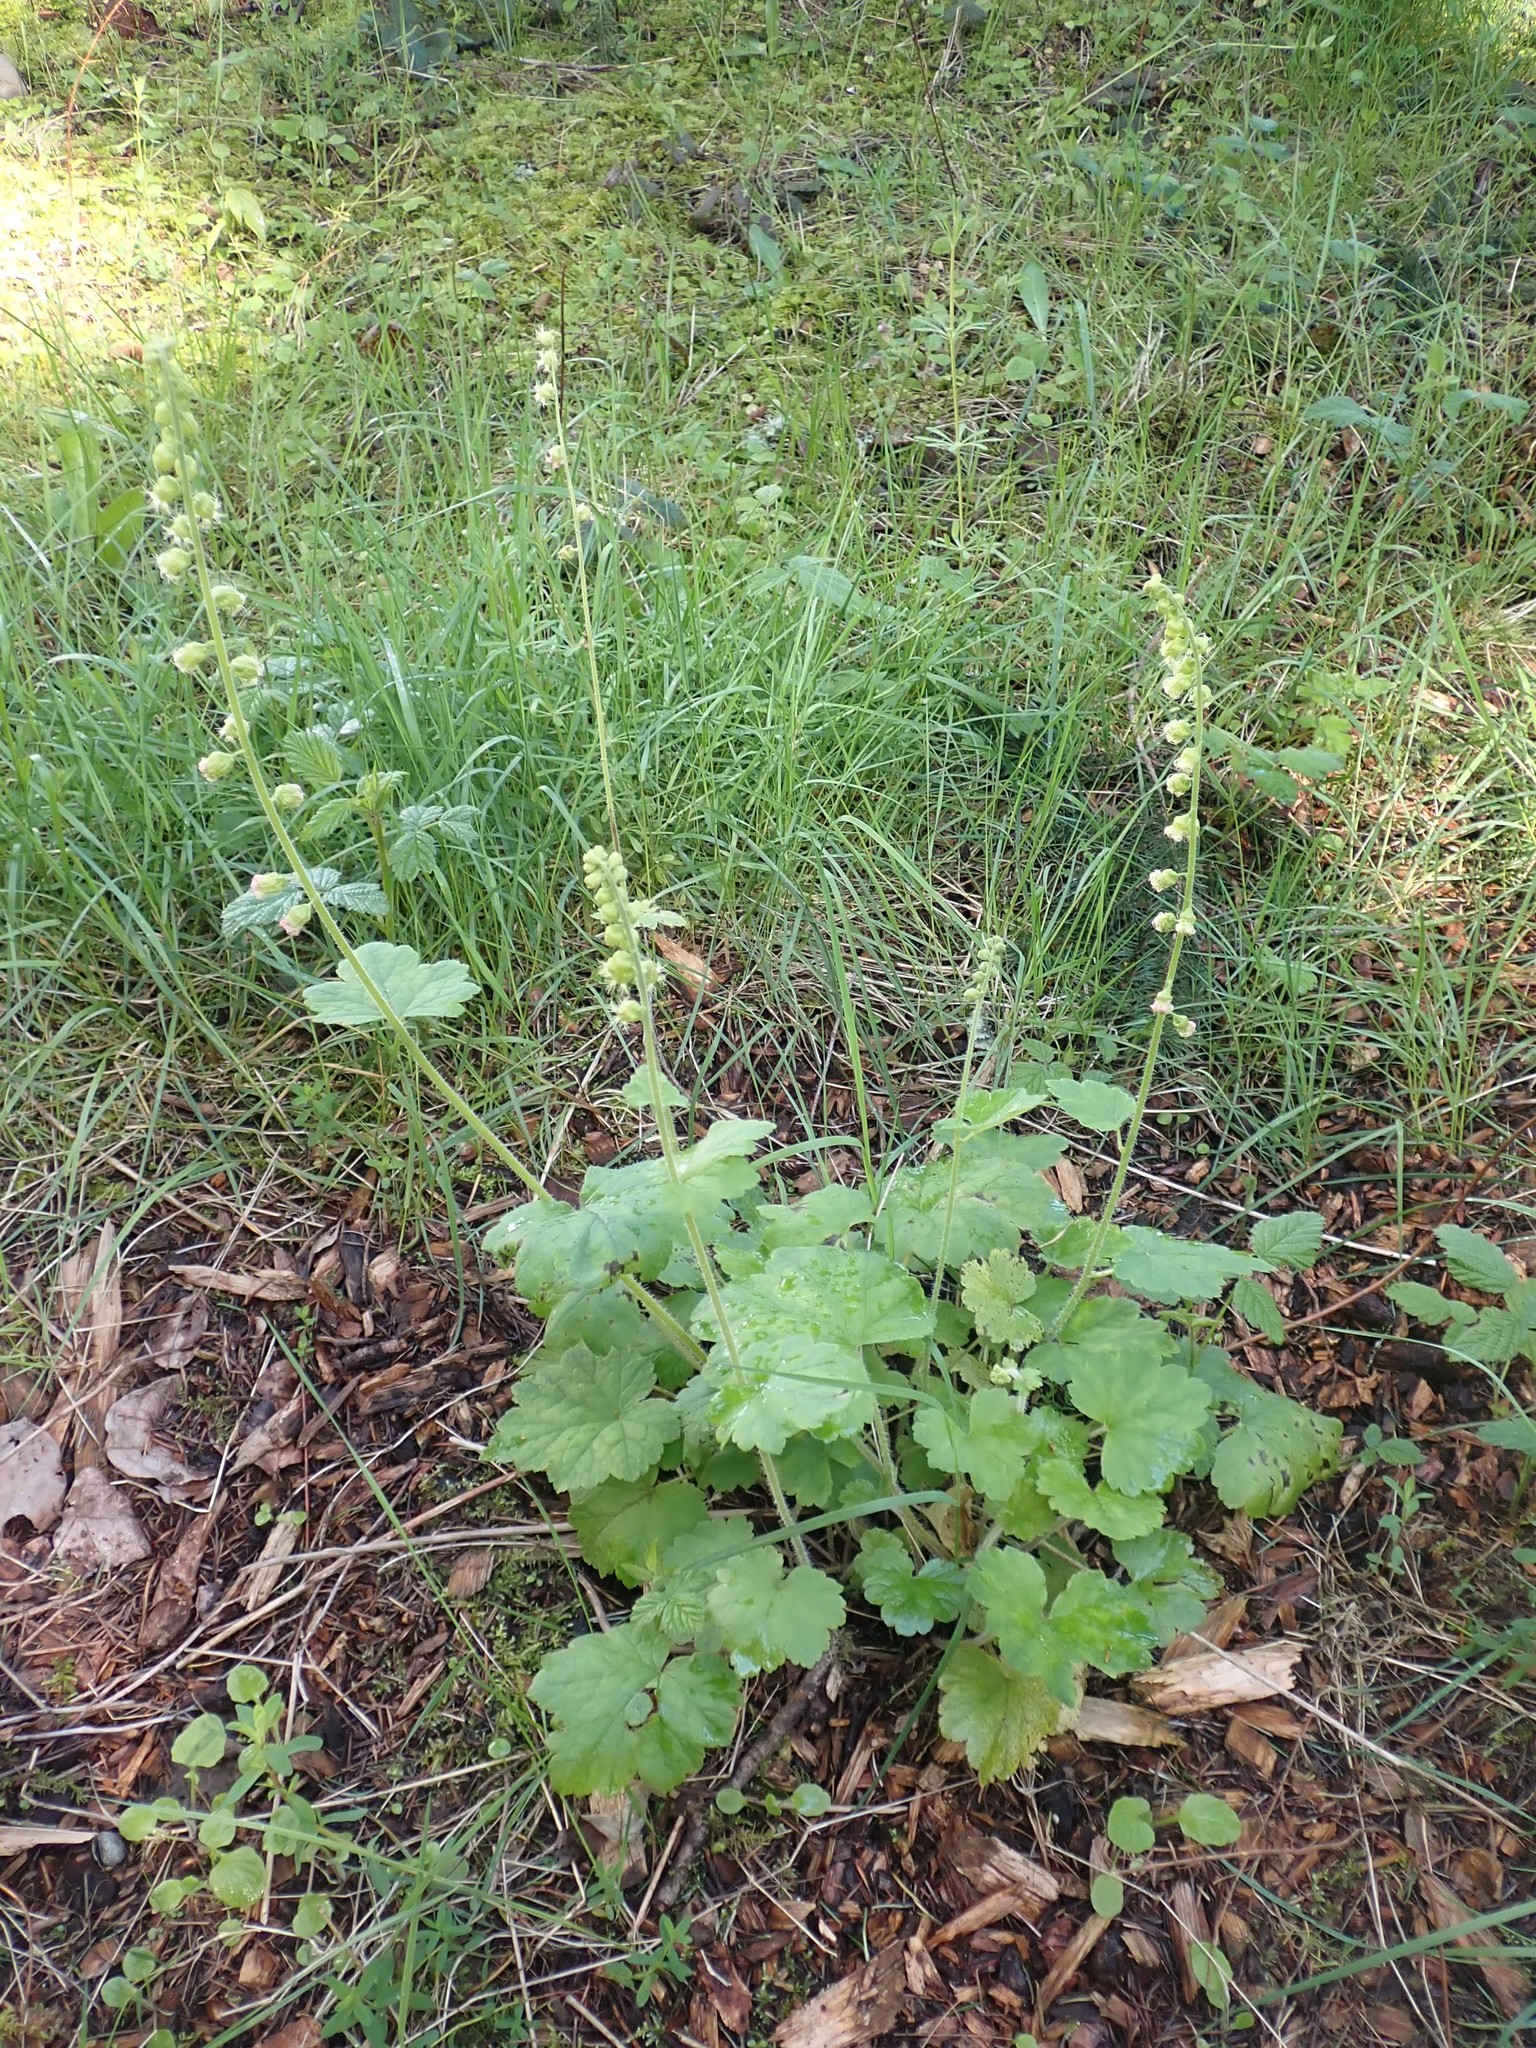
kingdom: Plantae
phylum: Tracheophyta
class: Magnoliopsida
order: Saxifragales
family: Saxifragaceae
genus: Tellima
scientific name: Tellima grandiflora
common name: Fringecups
